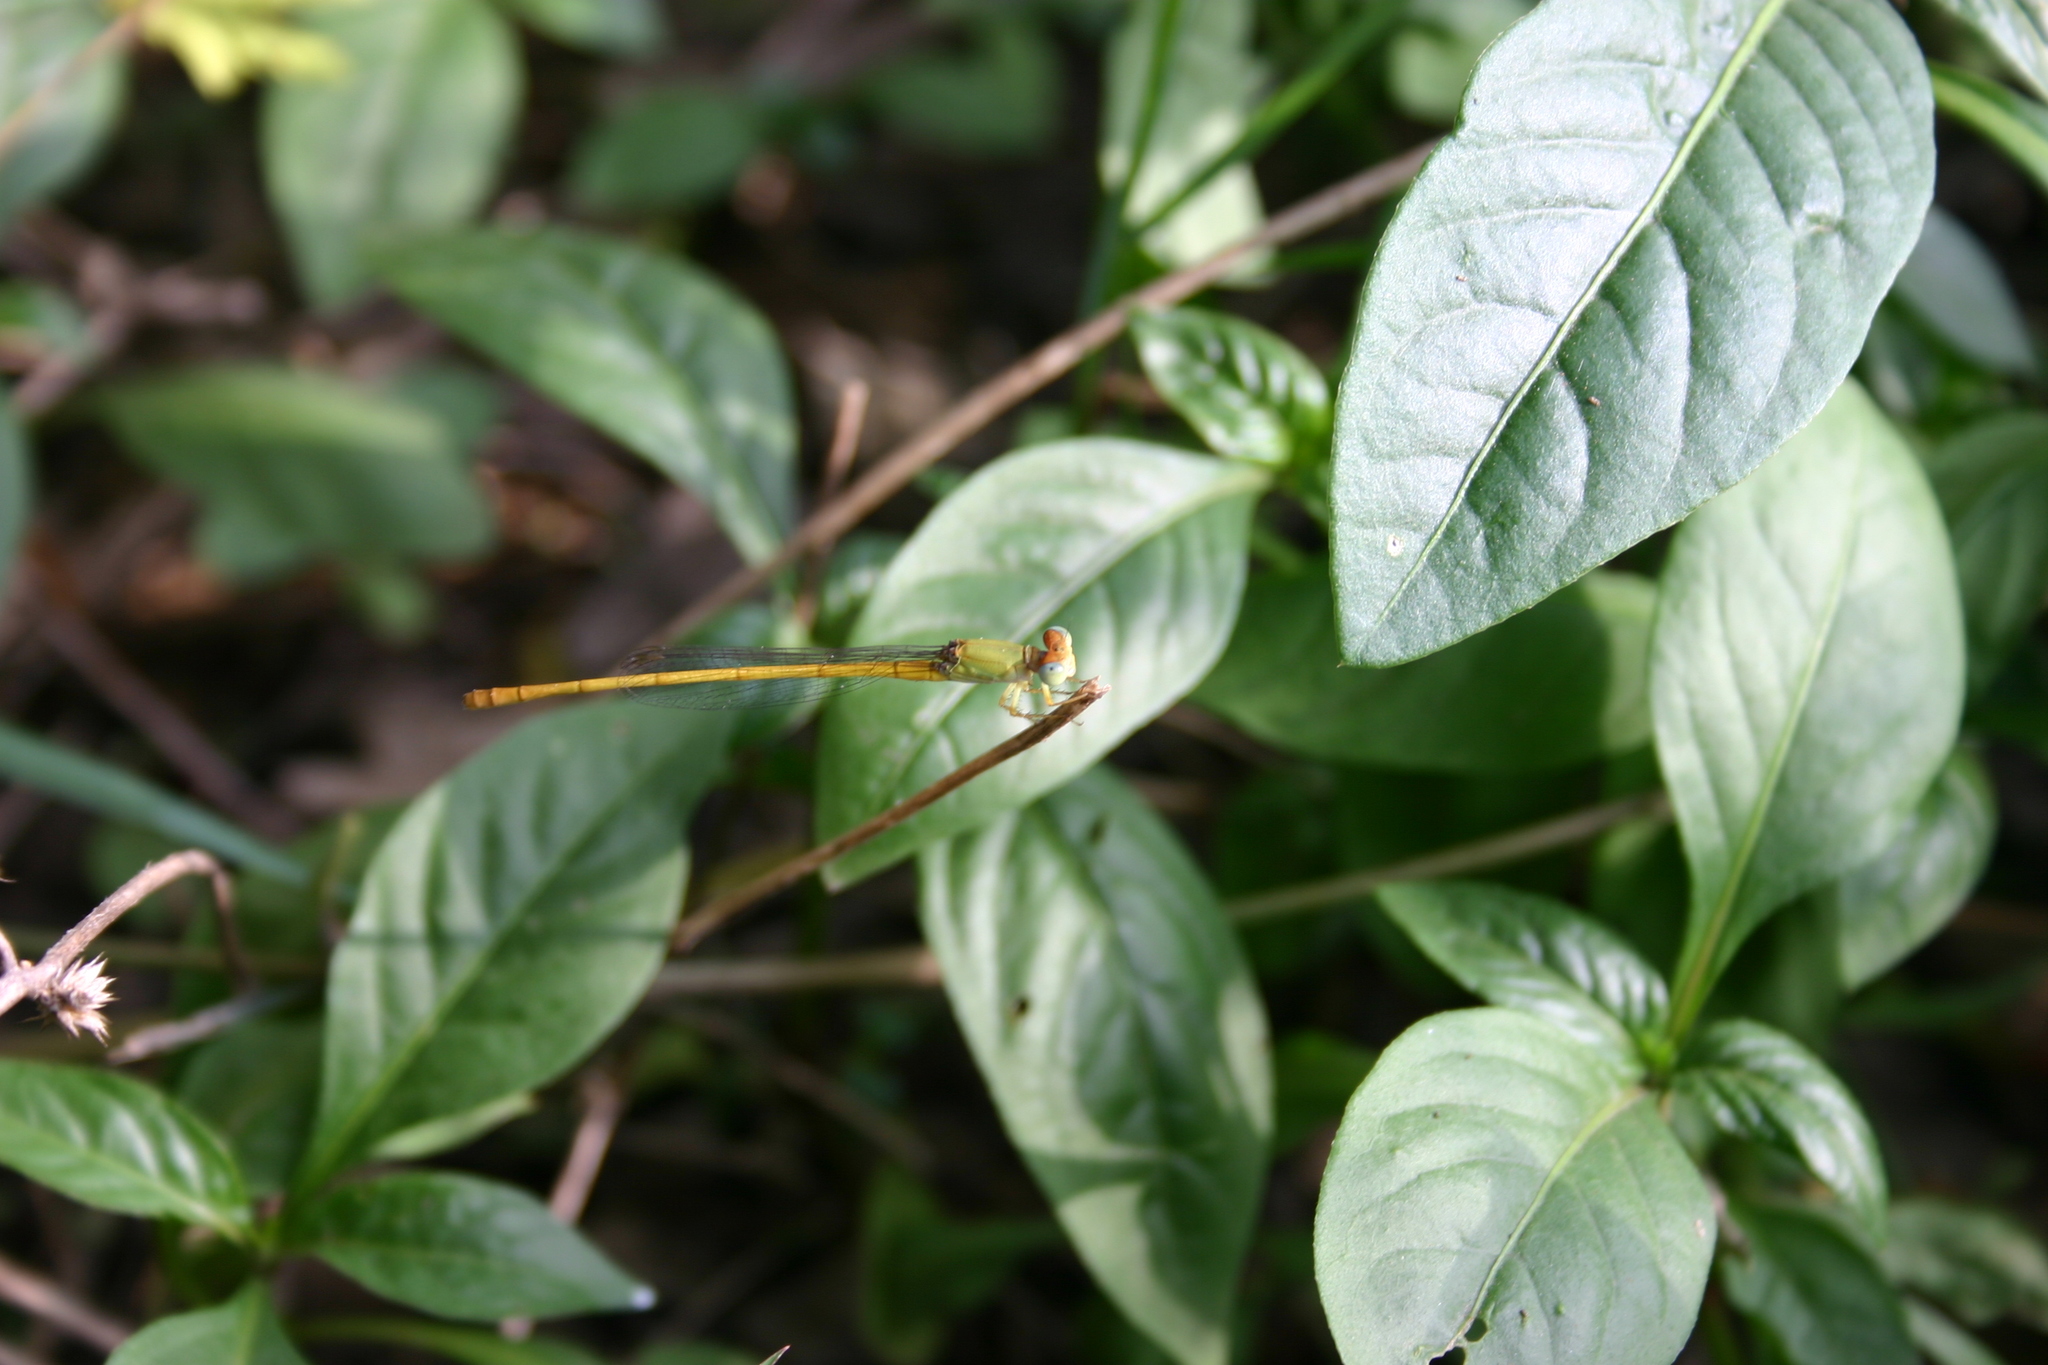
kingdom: Animalia
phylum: Arthropoda
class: Insecta
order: Odonata
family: Coenagrionidae
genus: Ceriagrion
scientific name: Ceriagrion coromandelianum
